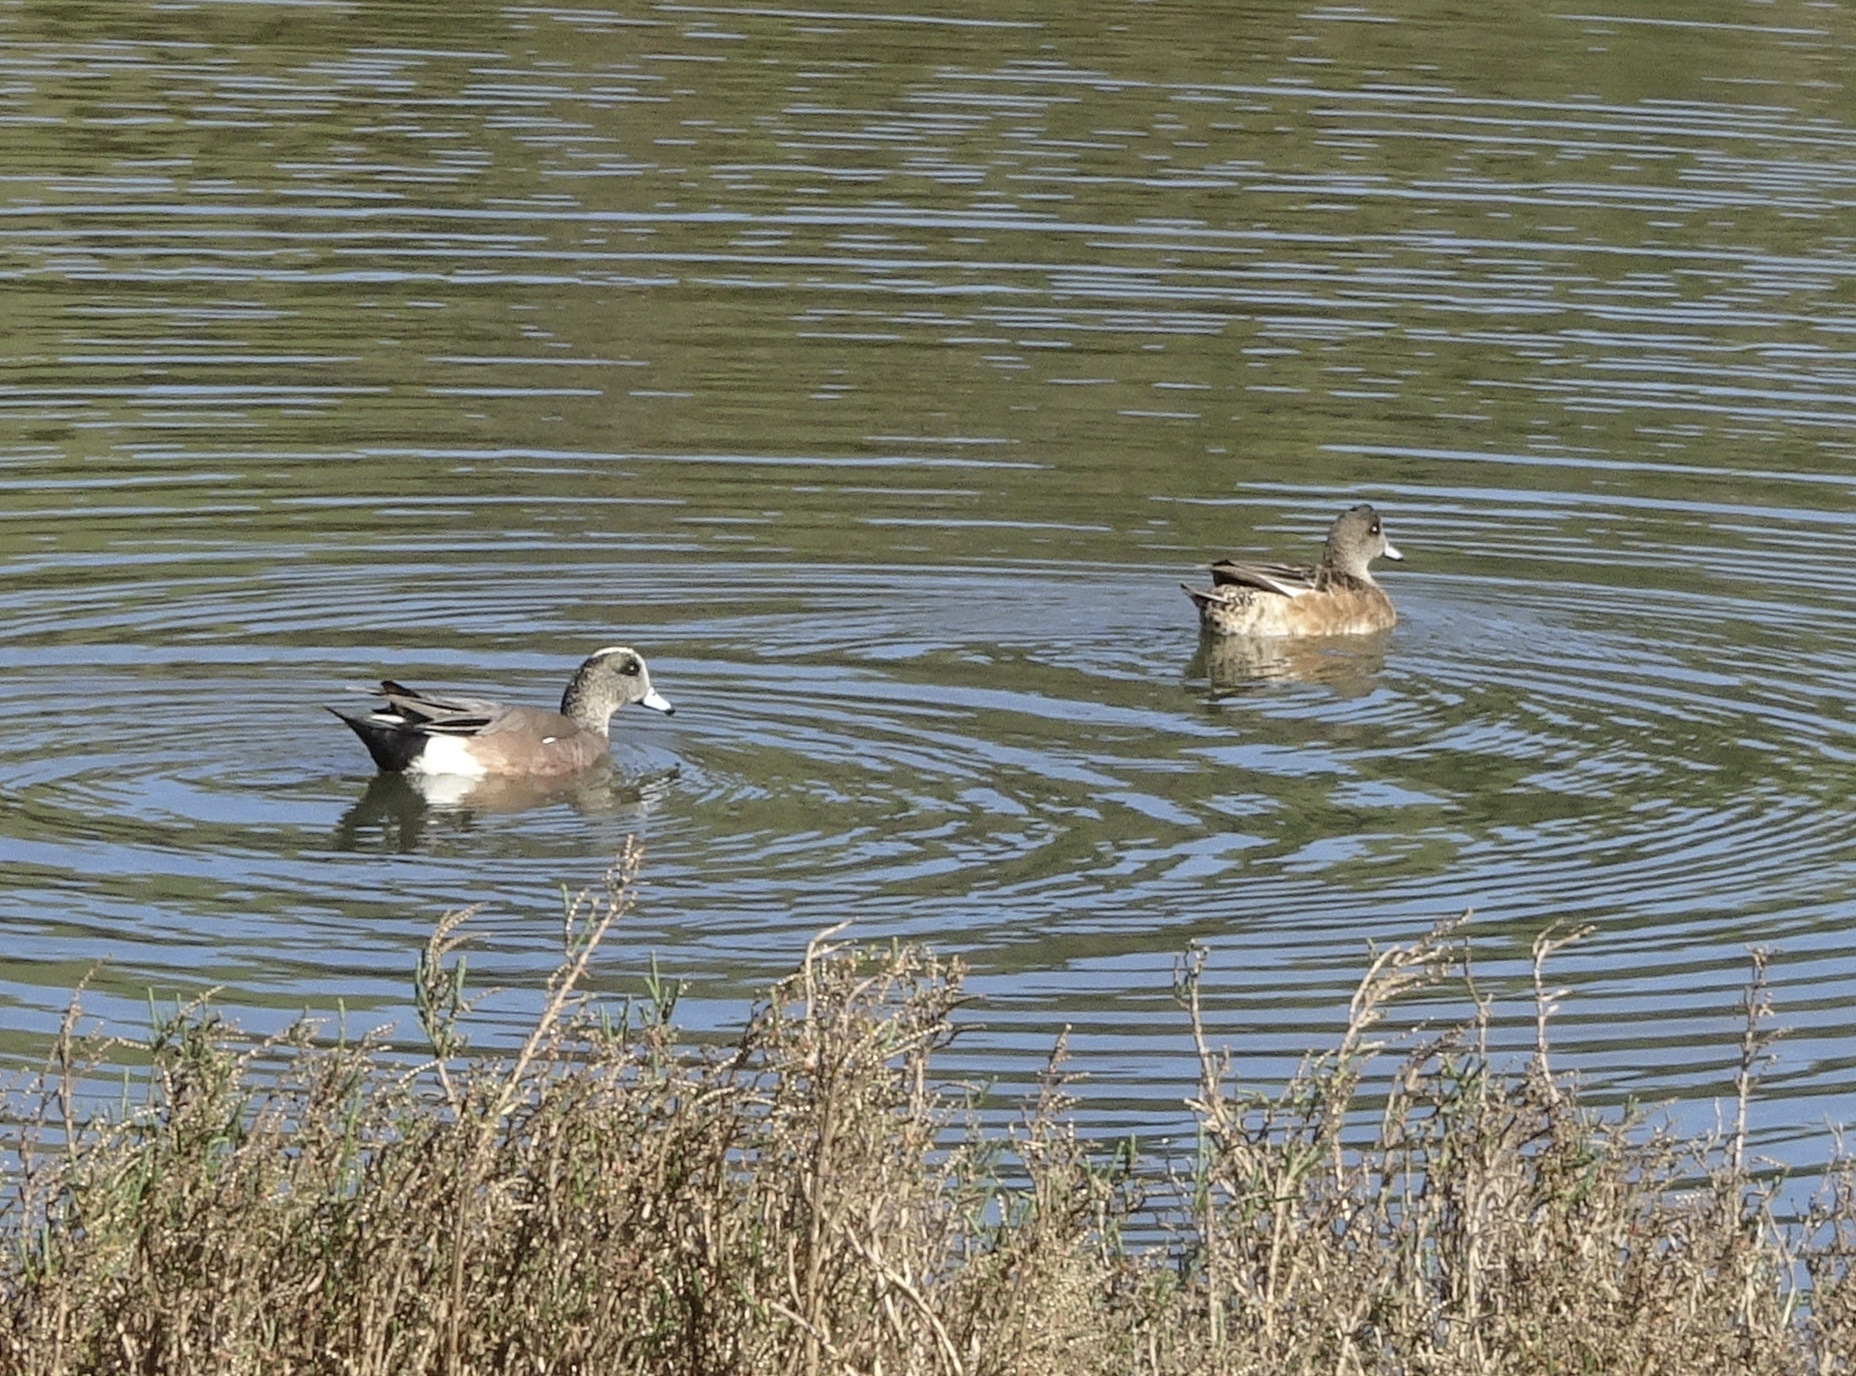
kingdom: Animalia
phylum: Chordata
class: Aves
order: Anseriformes
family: Anatidae
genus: Mareca
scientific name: Mareca americana
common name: American wigeon
